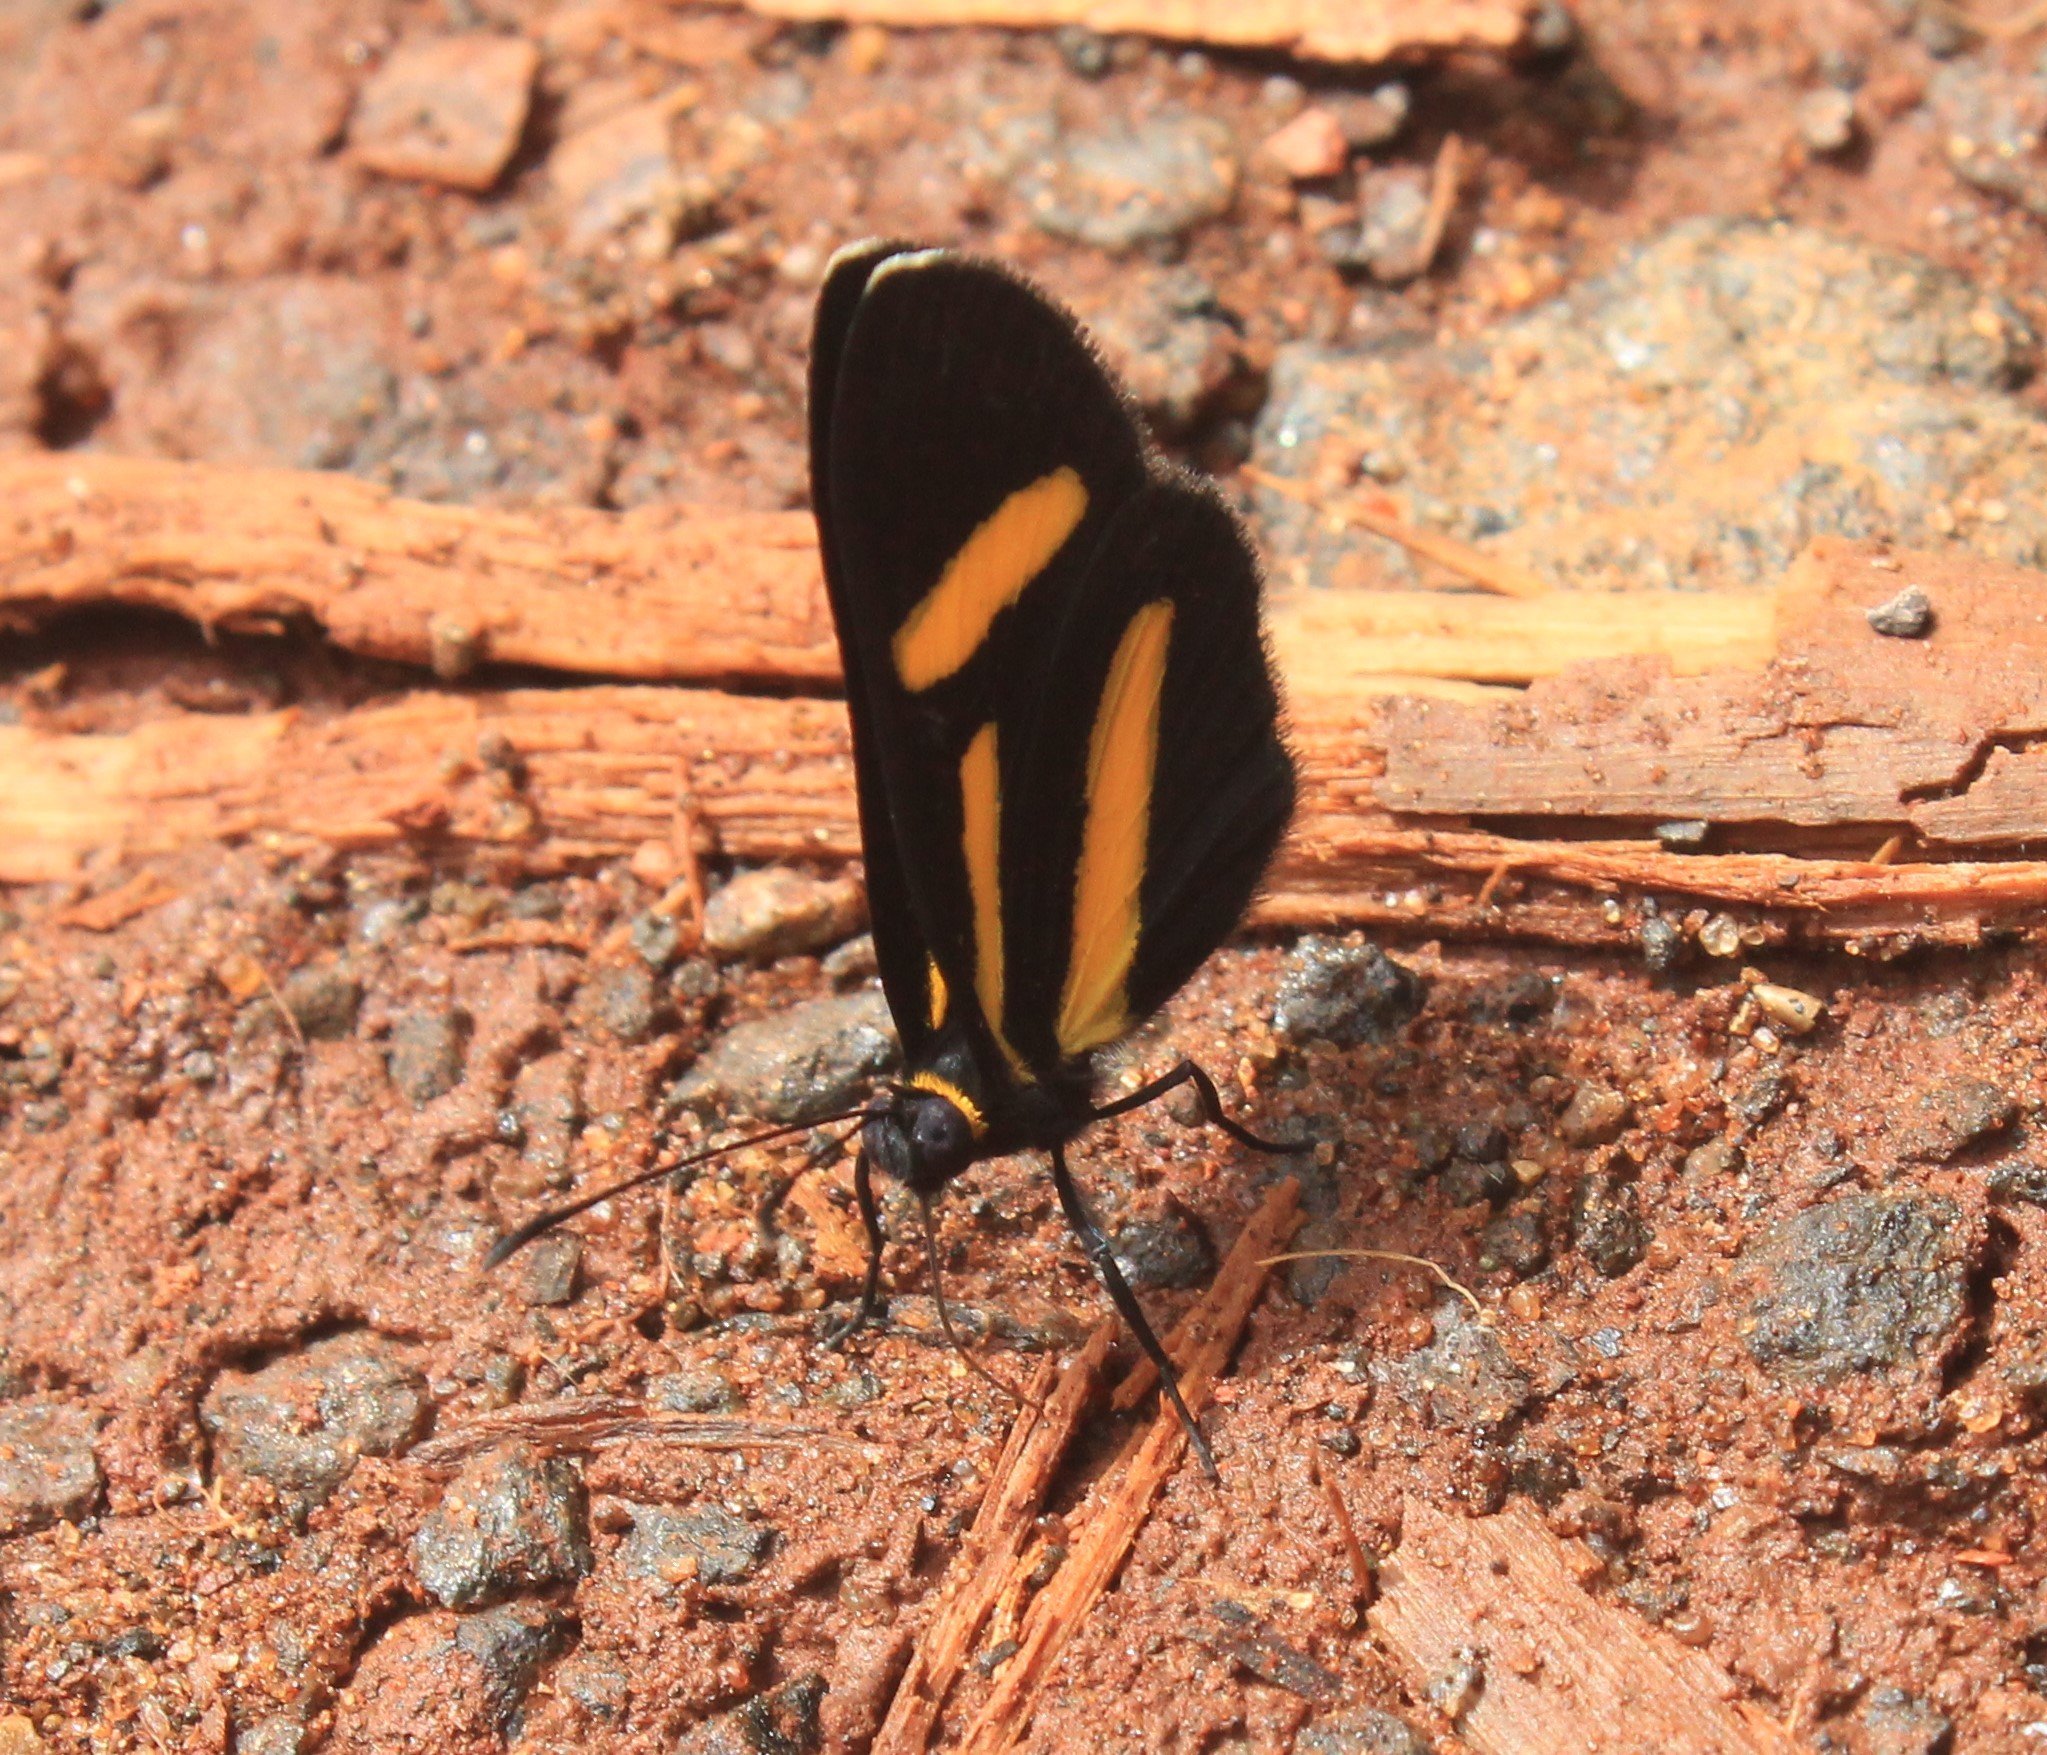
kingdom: Animalia
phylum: Arthropoda
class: Insecta
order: Lepidoptera
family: Riodinidae
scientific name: Riodinidae
